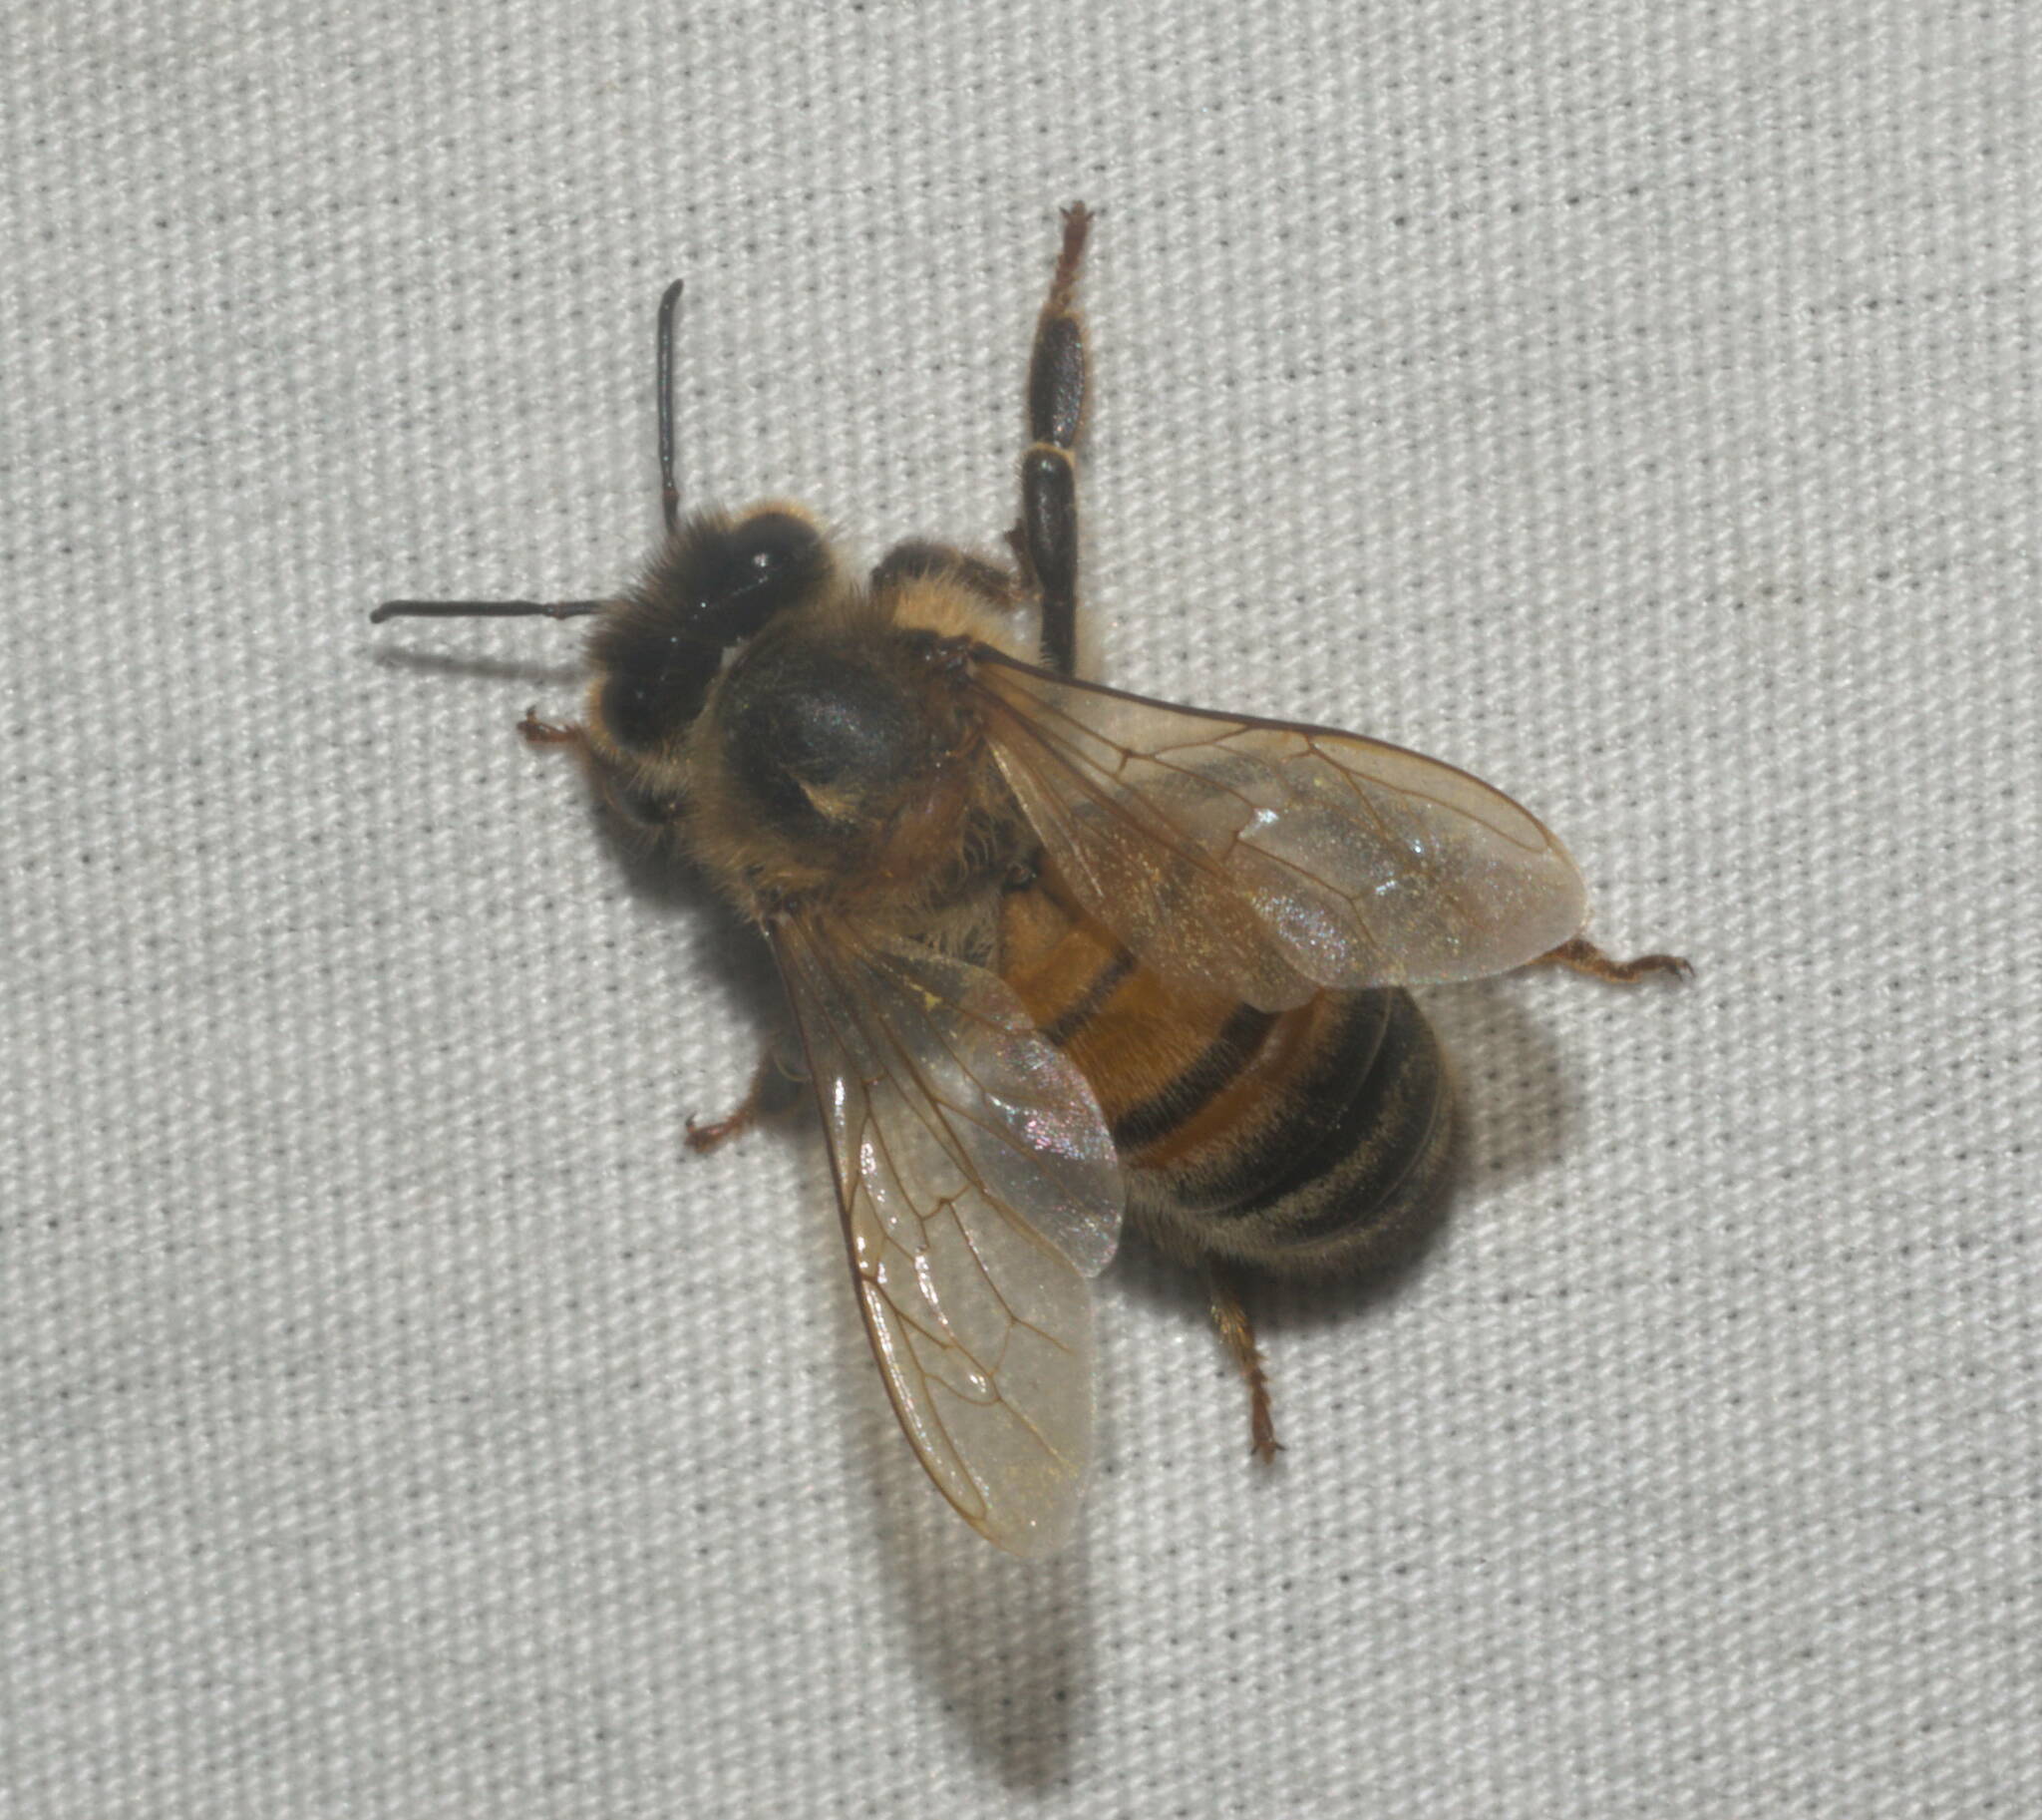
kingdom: Animalia
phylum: Arthropoda
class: Insecta
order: Hymenoptera
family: Apidae
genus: Apis
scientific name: Apis mellifera
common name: Honey bee
